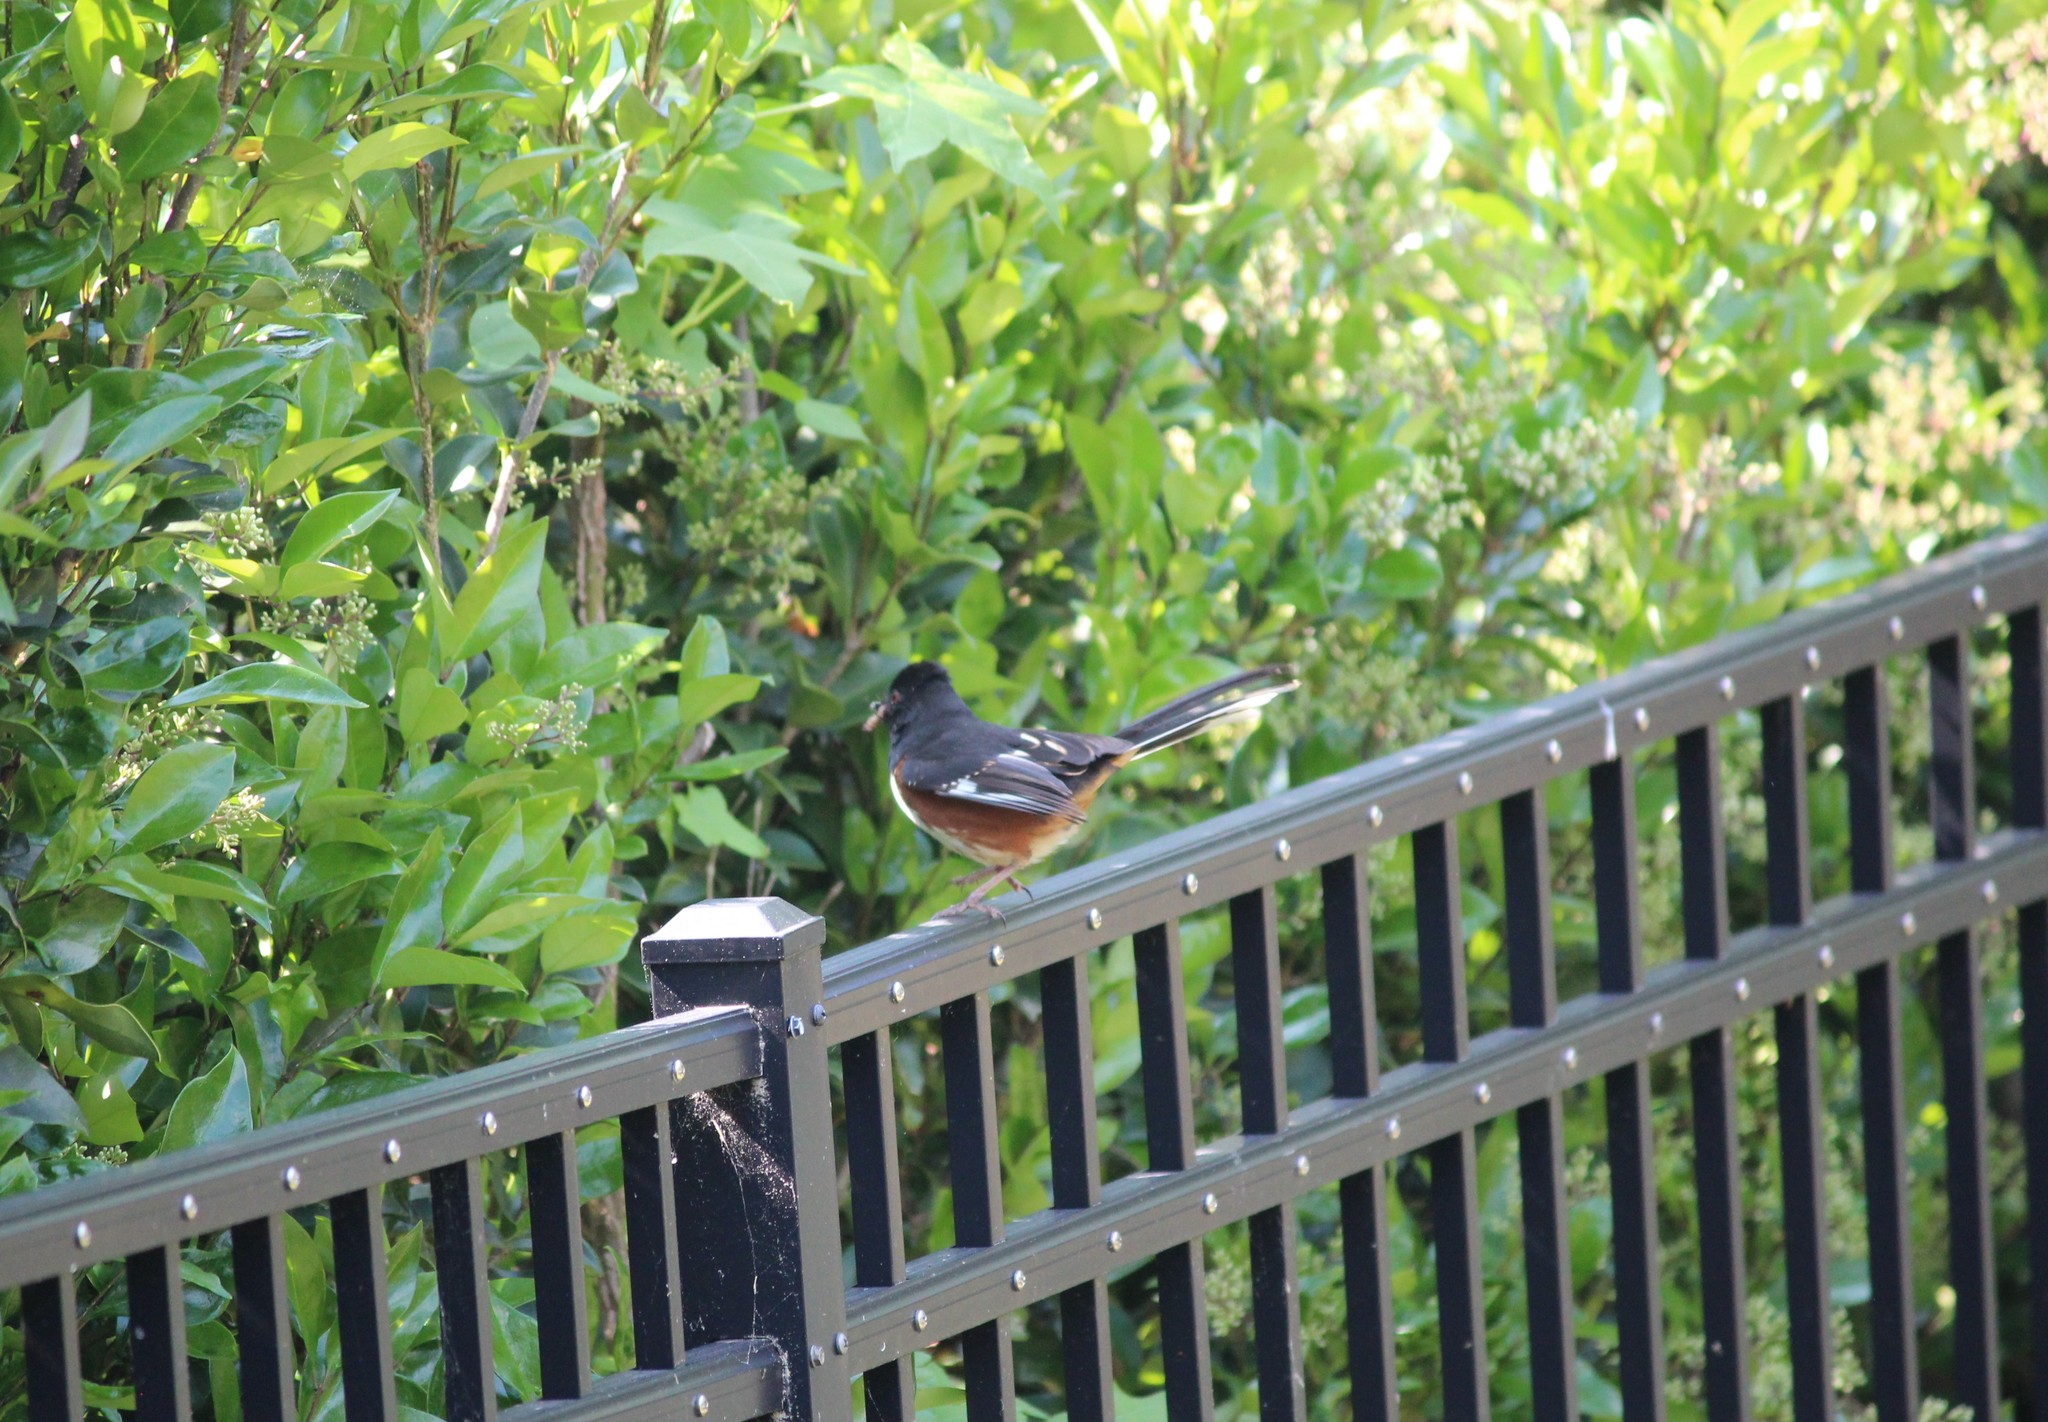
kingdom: Animalia
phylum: Chordata
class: Aves
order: Passeriformes
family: Passerellidae
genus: Pipilo
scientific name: Pipilo erythrophthalmus
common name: Eastern towhee
